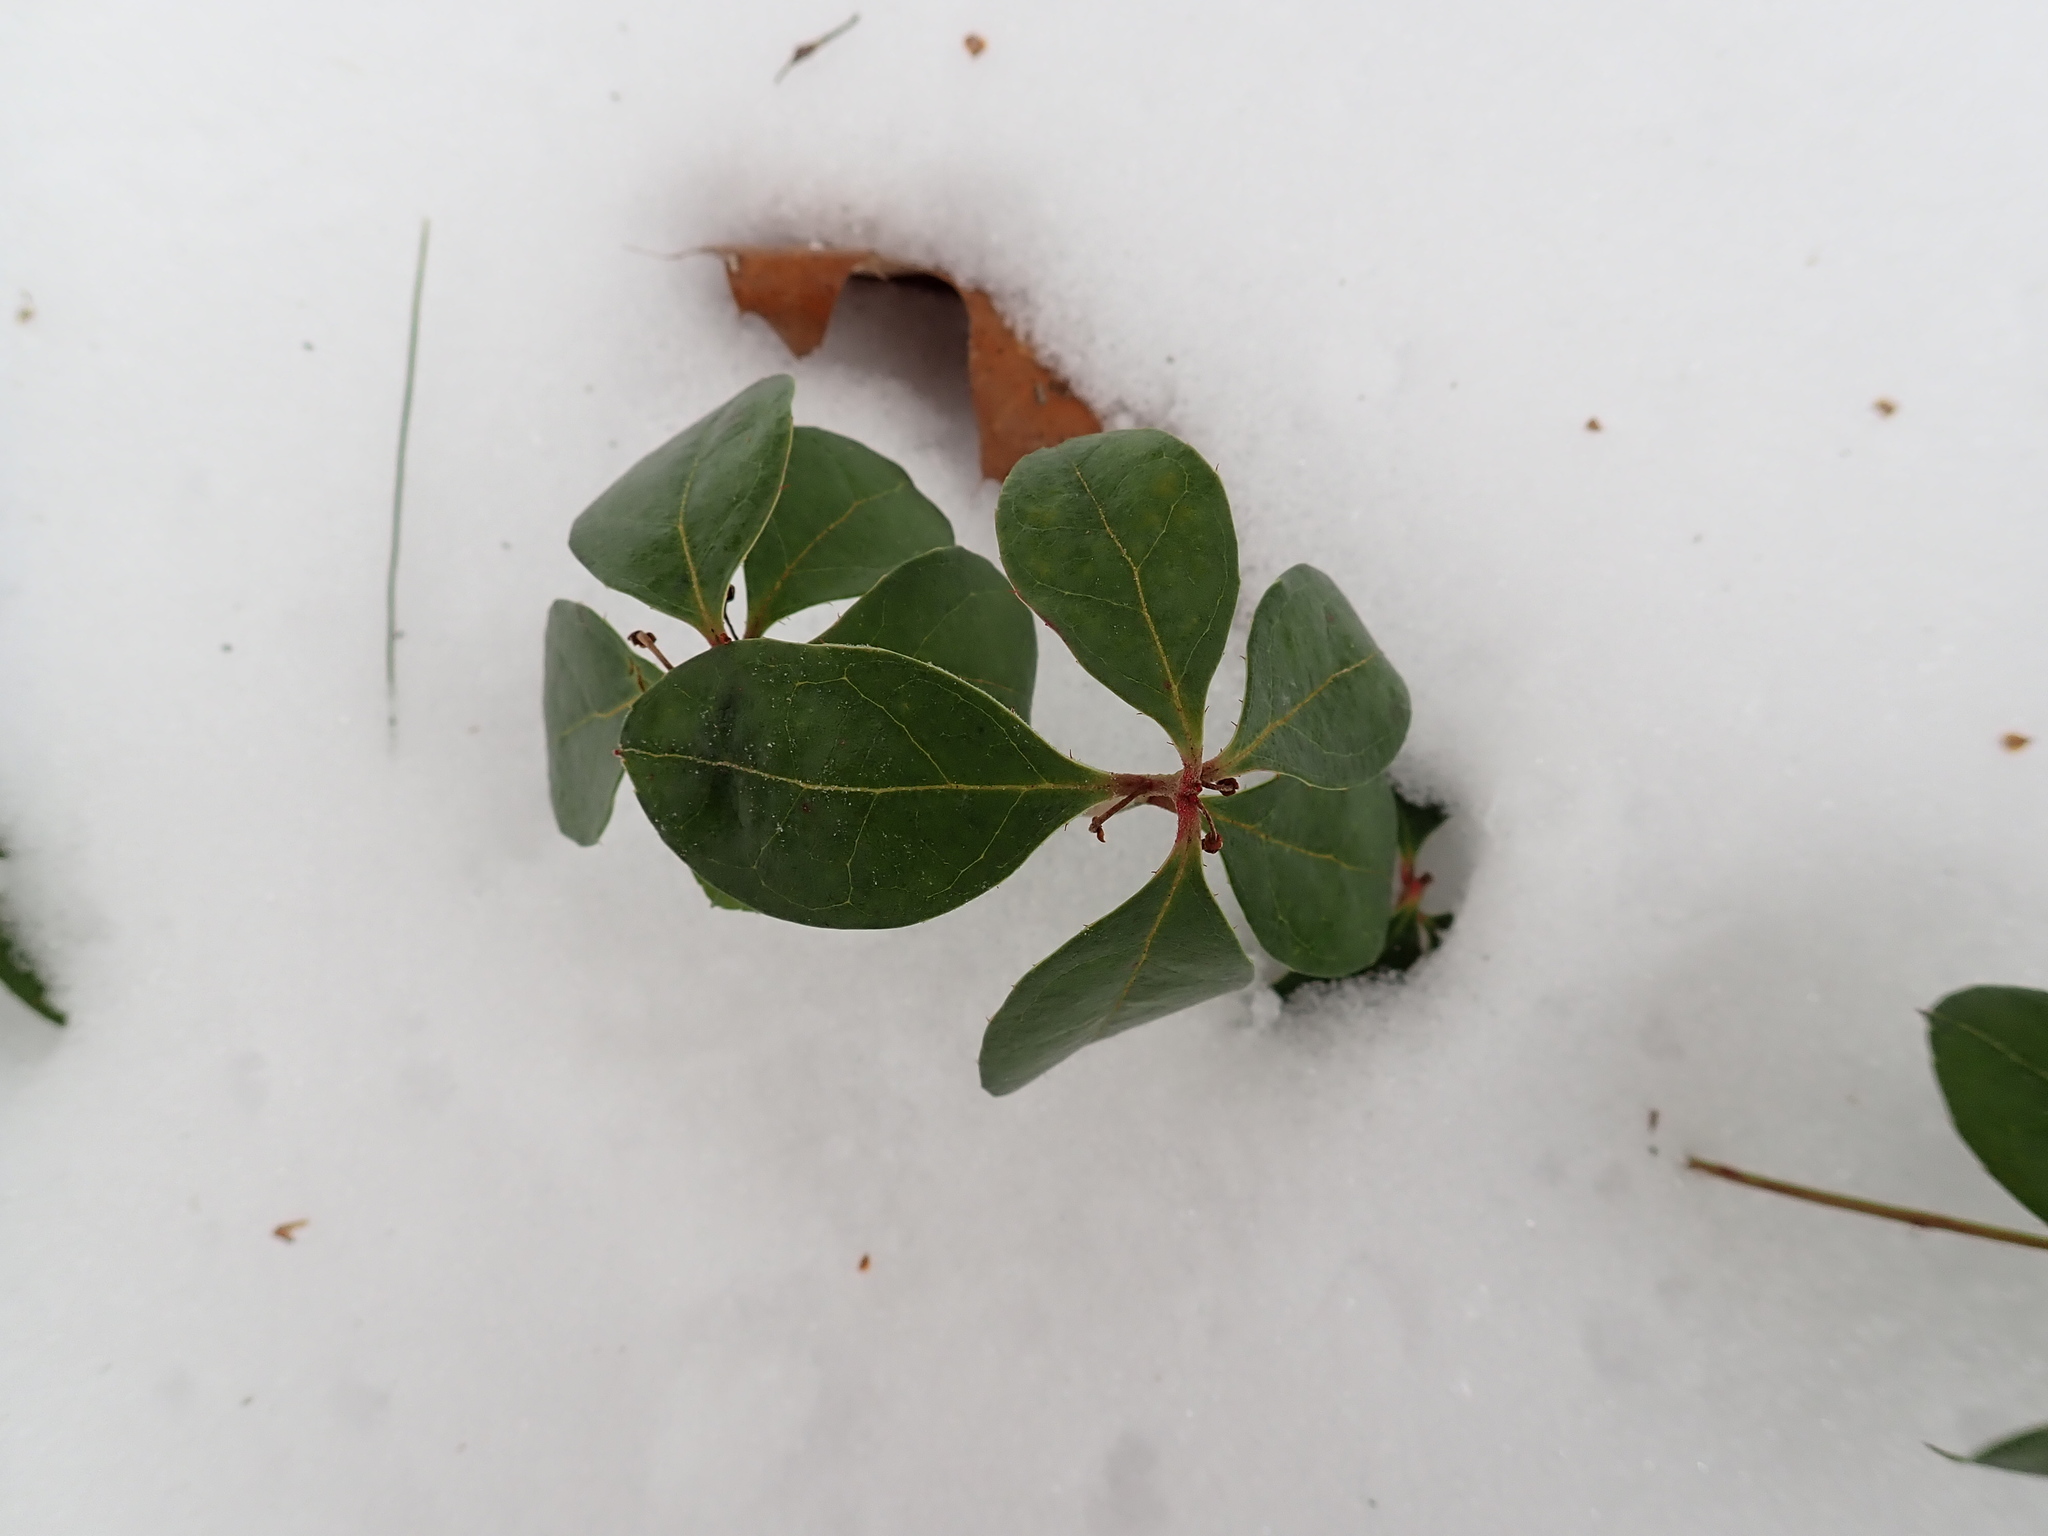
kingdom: Plantae
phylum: Tracheophyta
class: Magnoliopsida
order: Ericales
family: Ericaceae
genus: Gaultheria
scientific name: Gaultheria procumbens
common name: Checkerberry
